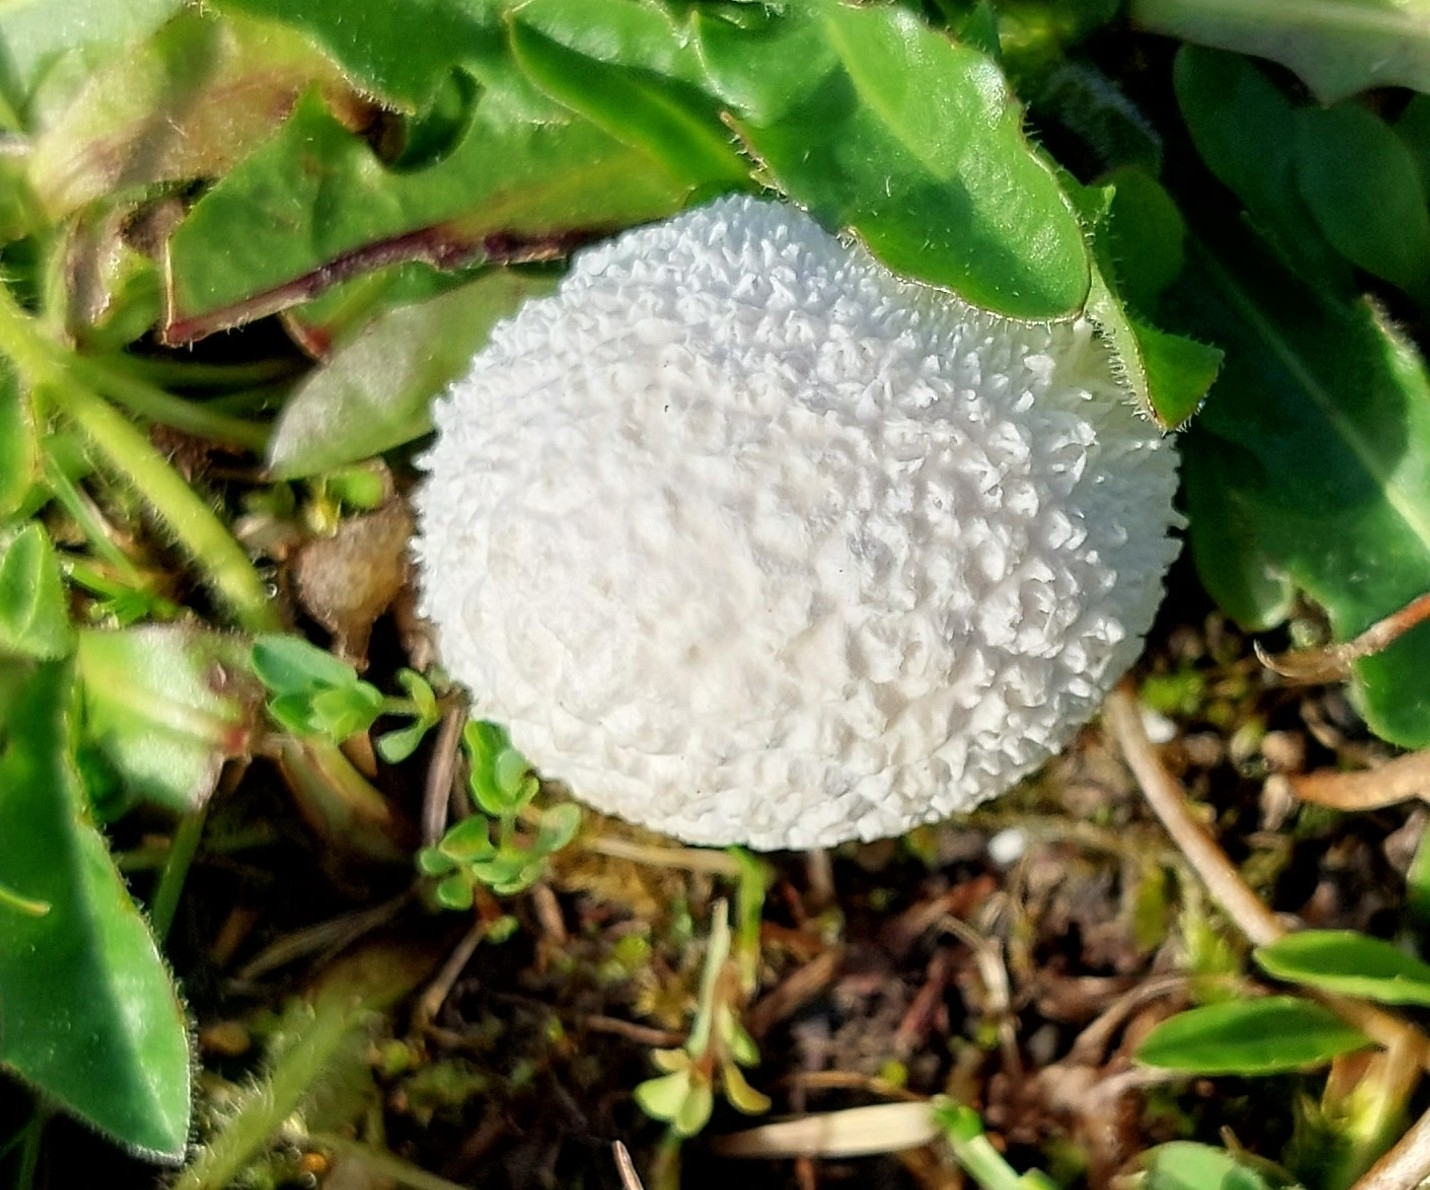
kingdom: Fungi
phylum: Basidiomycota
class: Agaricomycetes
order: Agaricales
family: Lycoperdaceae
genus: Lycoperdon
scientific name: Lycoperdon pratense
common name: Meadow puffball
